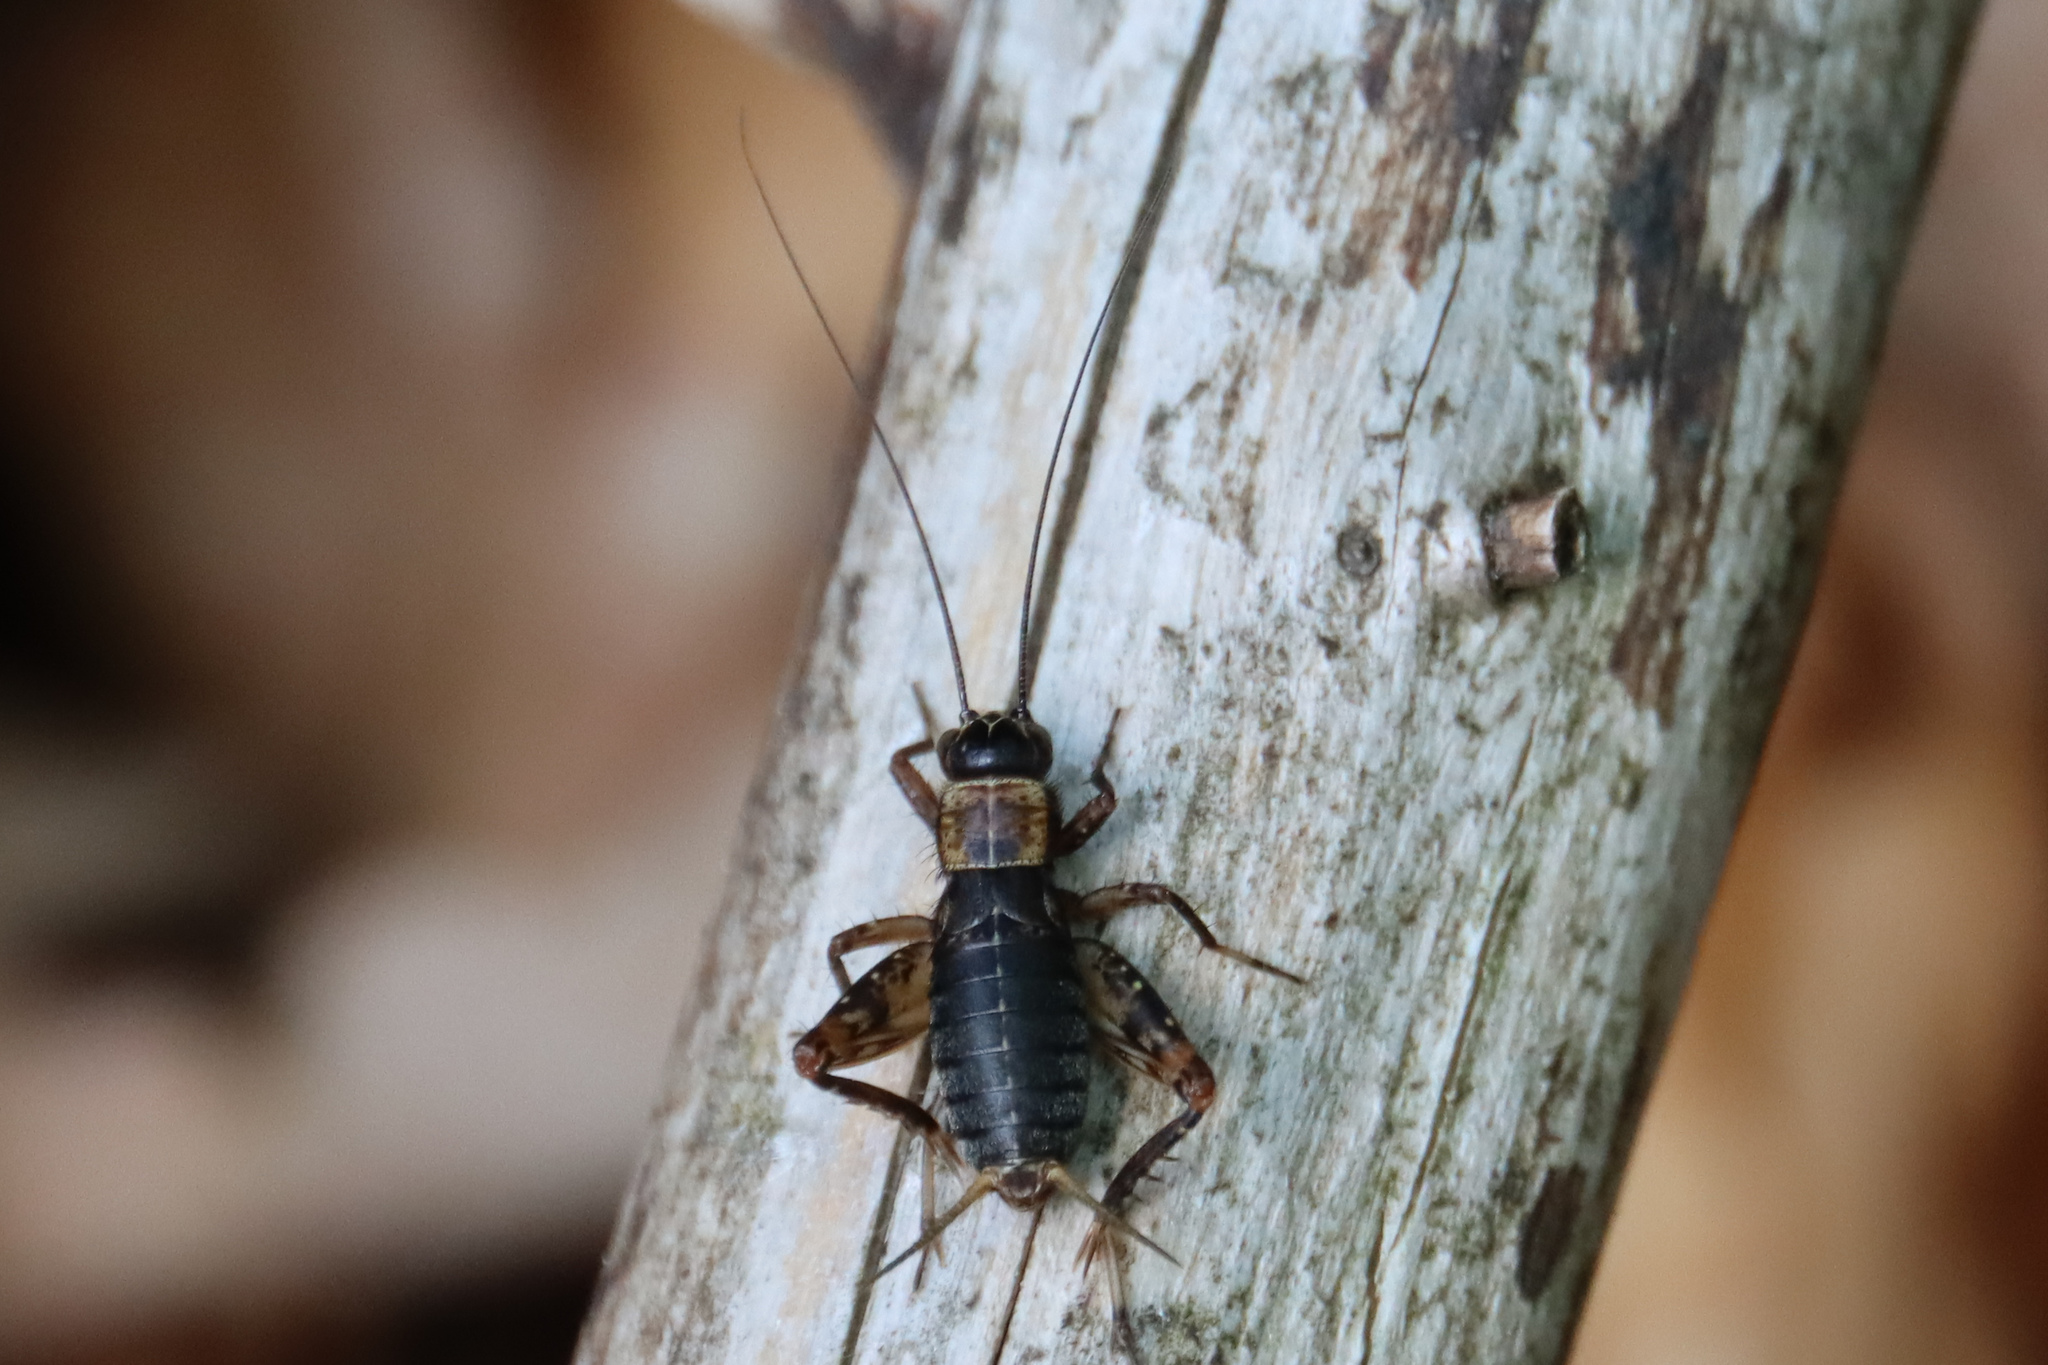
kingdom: Animalia
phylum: Arthropoda
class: Insecta
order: Orthoptera
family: Trigonidiidae
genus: Nemobius
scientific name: Nemobius sylvestris
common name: Wood-cricket
